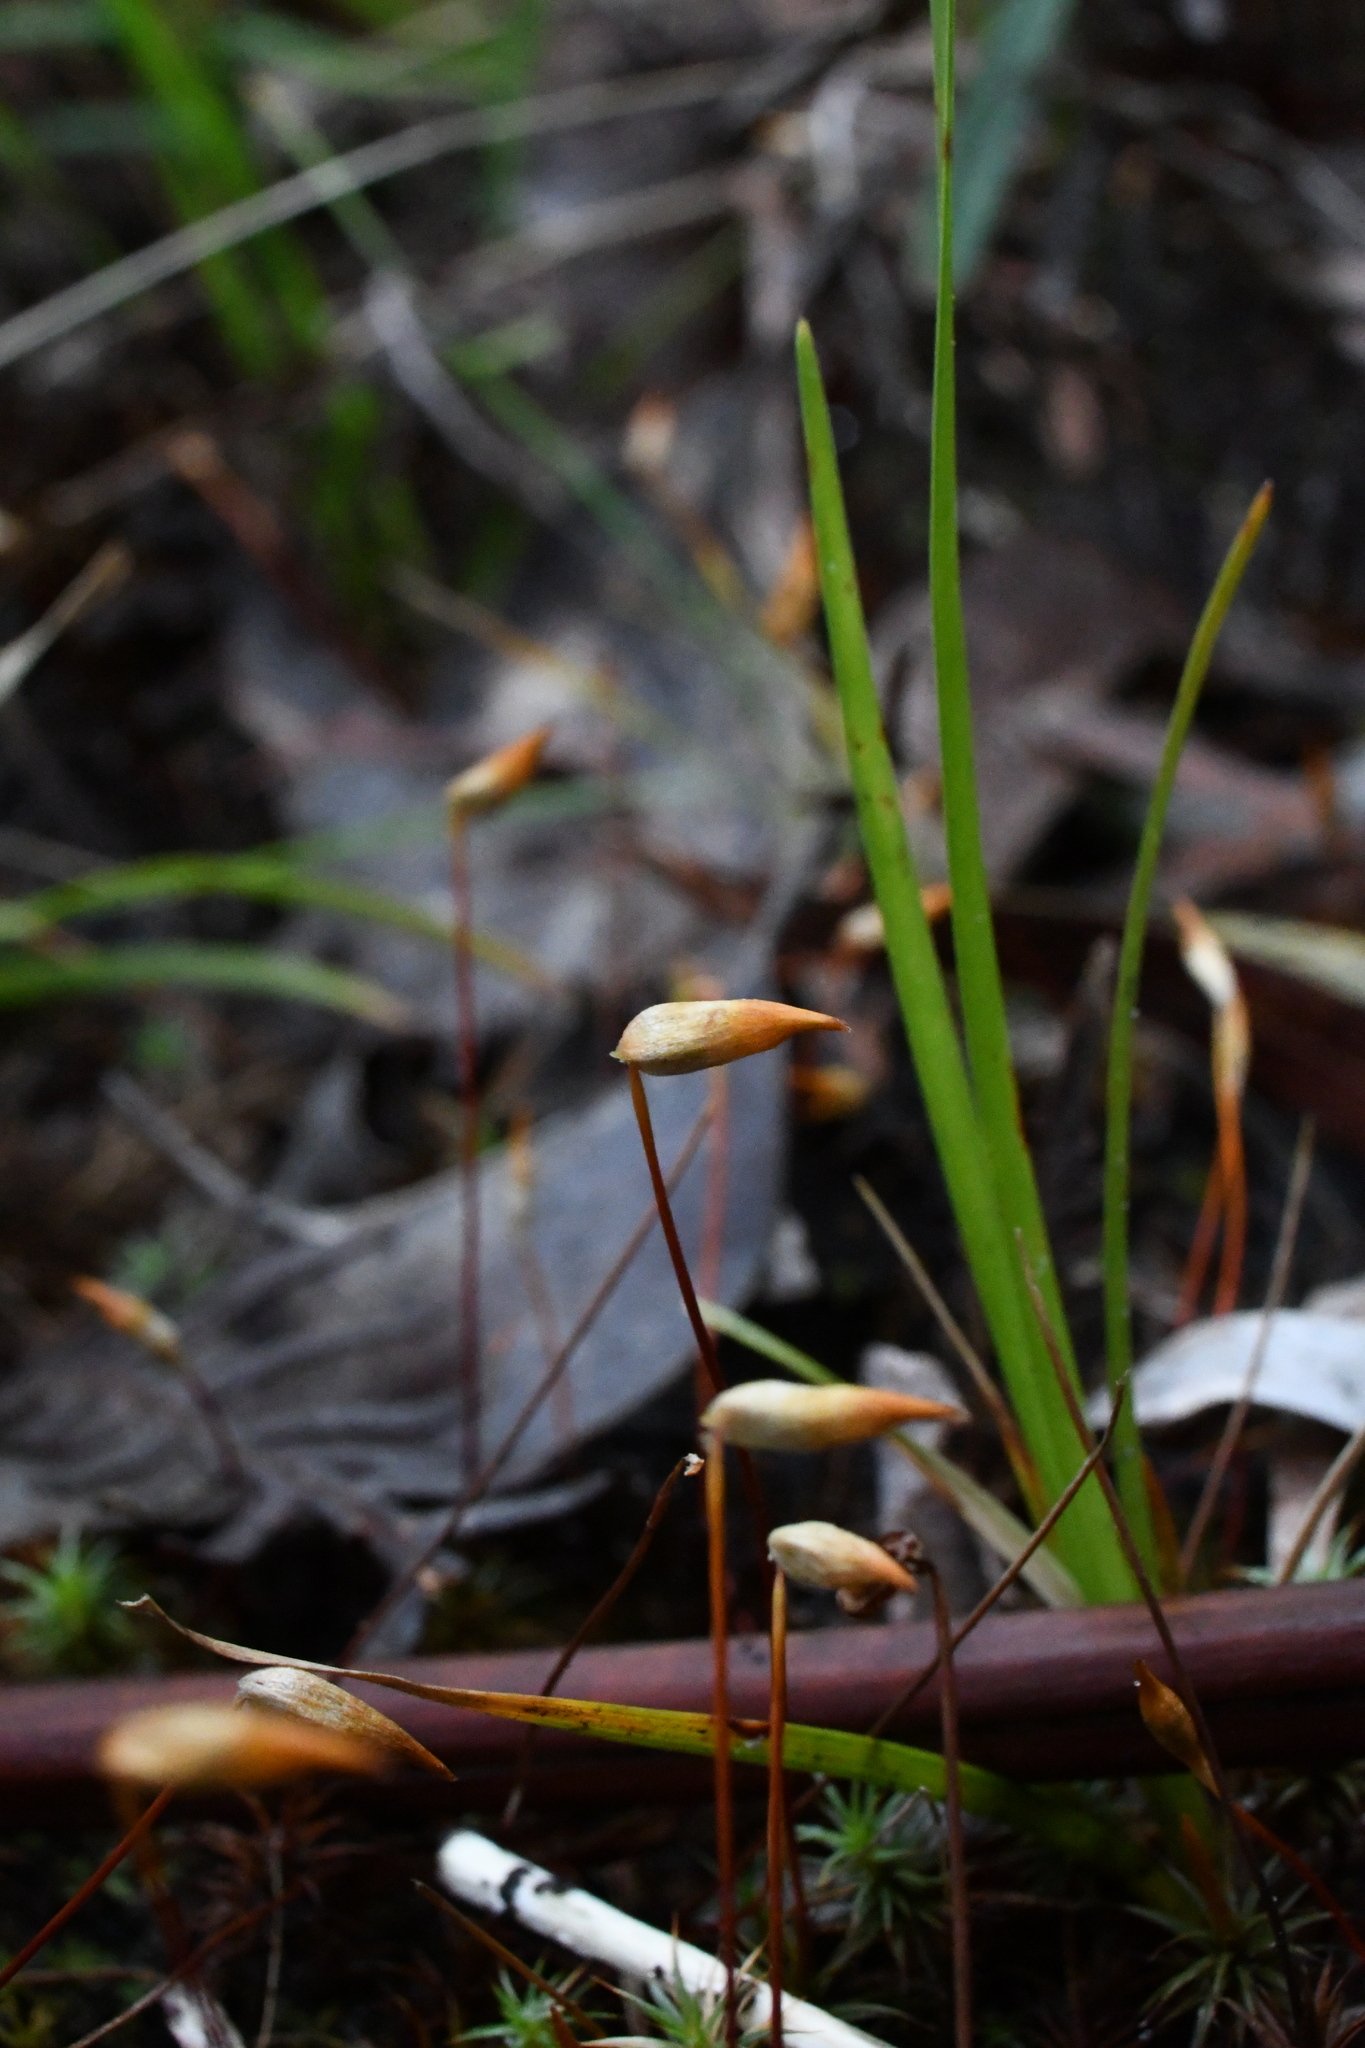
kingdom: Plantae
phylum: Bryophyta
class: Polytrichopsida
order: Polytrichales
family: Polytrichaceae
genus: Polytrichum
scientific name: Polytrichum juniperinum
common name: Juniper haircap moss
